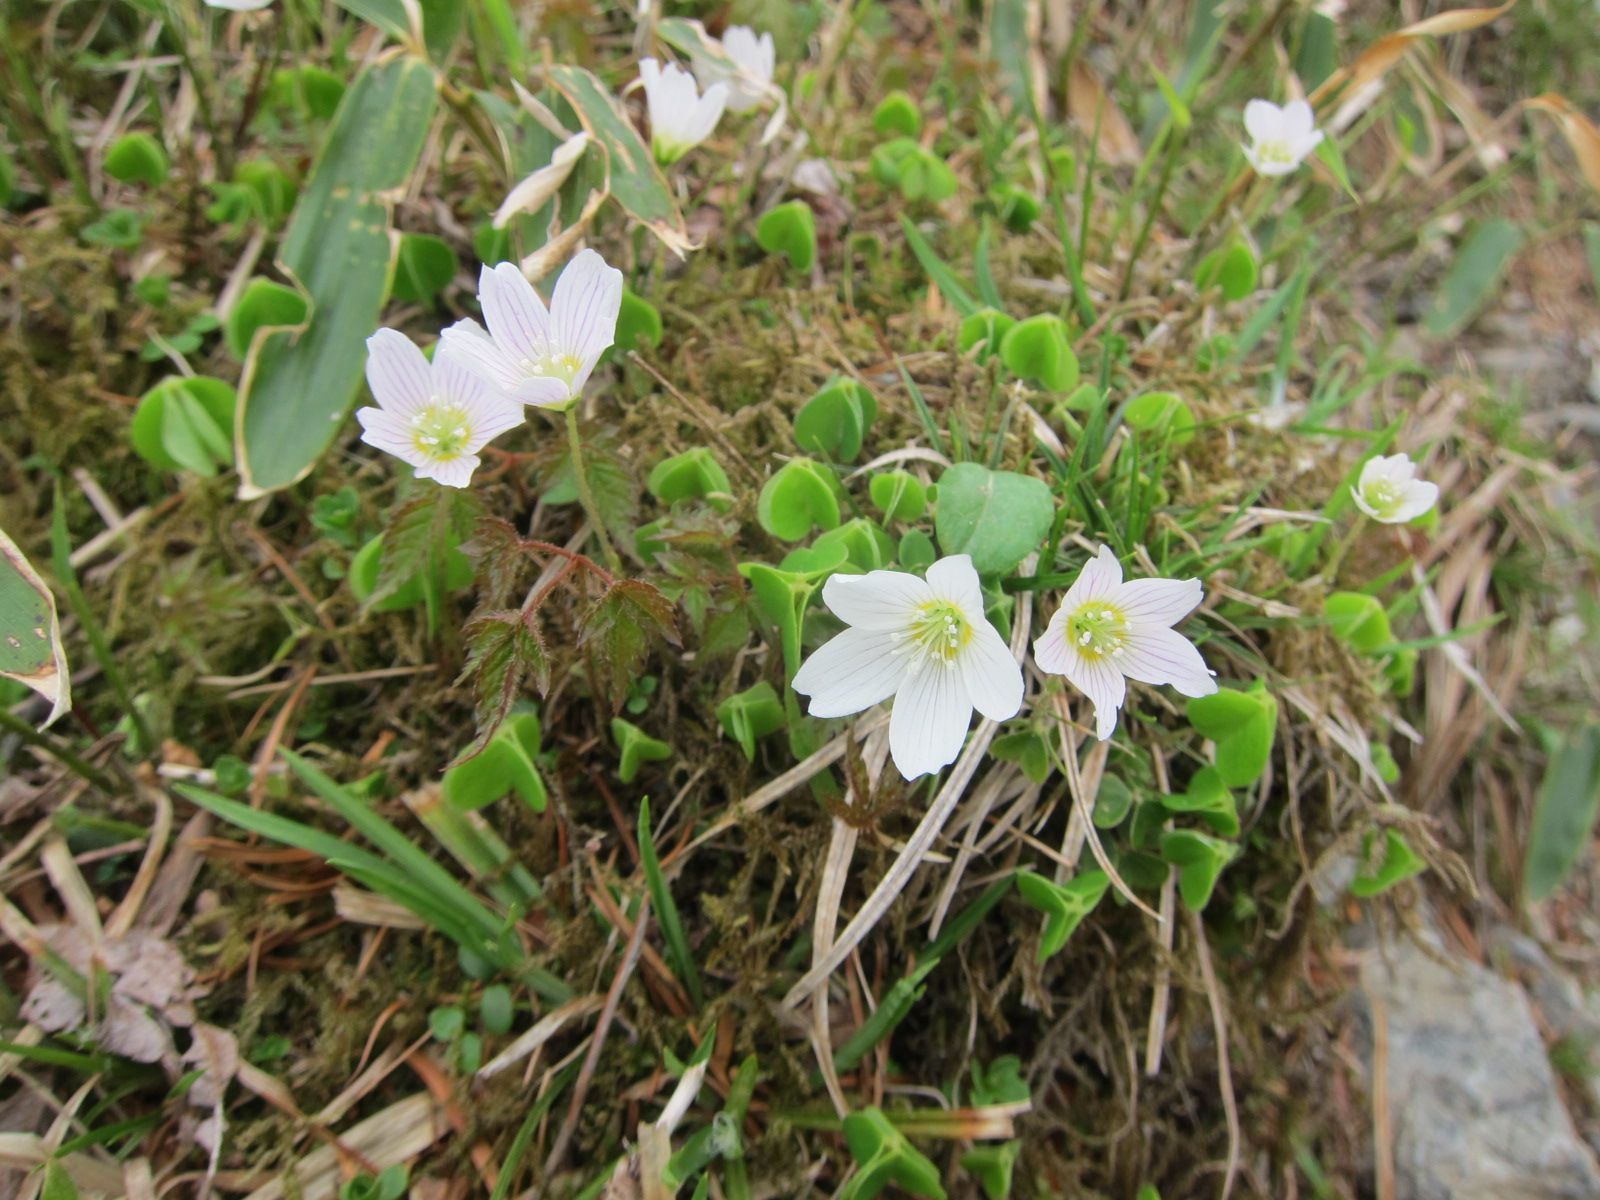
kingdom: Plantae
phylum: Tracheophyta
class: Magnoliopsida
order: Oxalidales
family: Oxalidaceae
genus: Oxalis
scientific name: Oxalis acetosella
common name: Wood-sorrel
